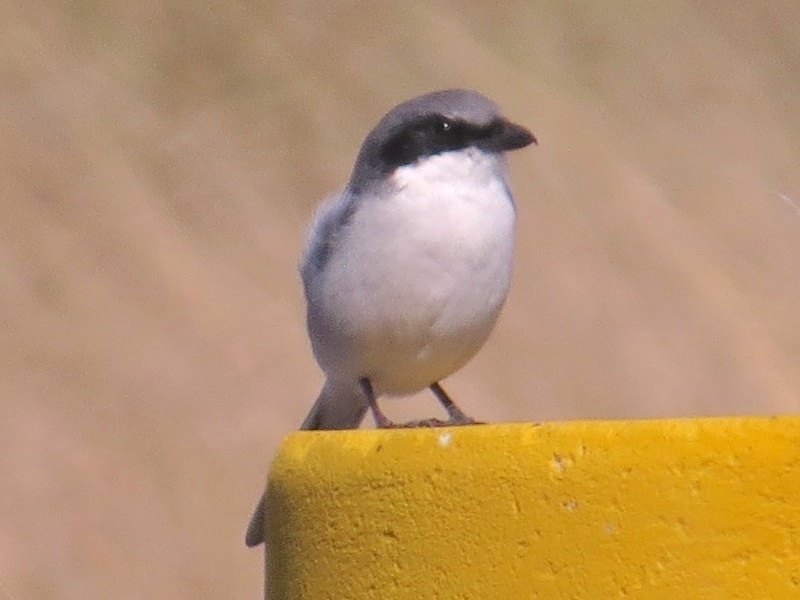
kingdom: Animalia
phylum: Chordata
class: Aves
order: Passeriformes
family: Laniidae
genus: Lanius
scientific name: Lanius ludovicianus
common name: Loggerhead shrike
